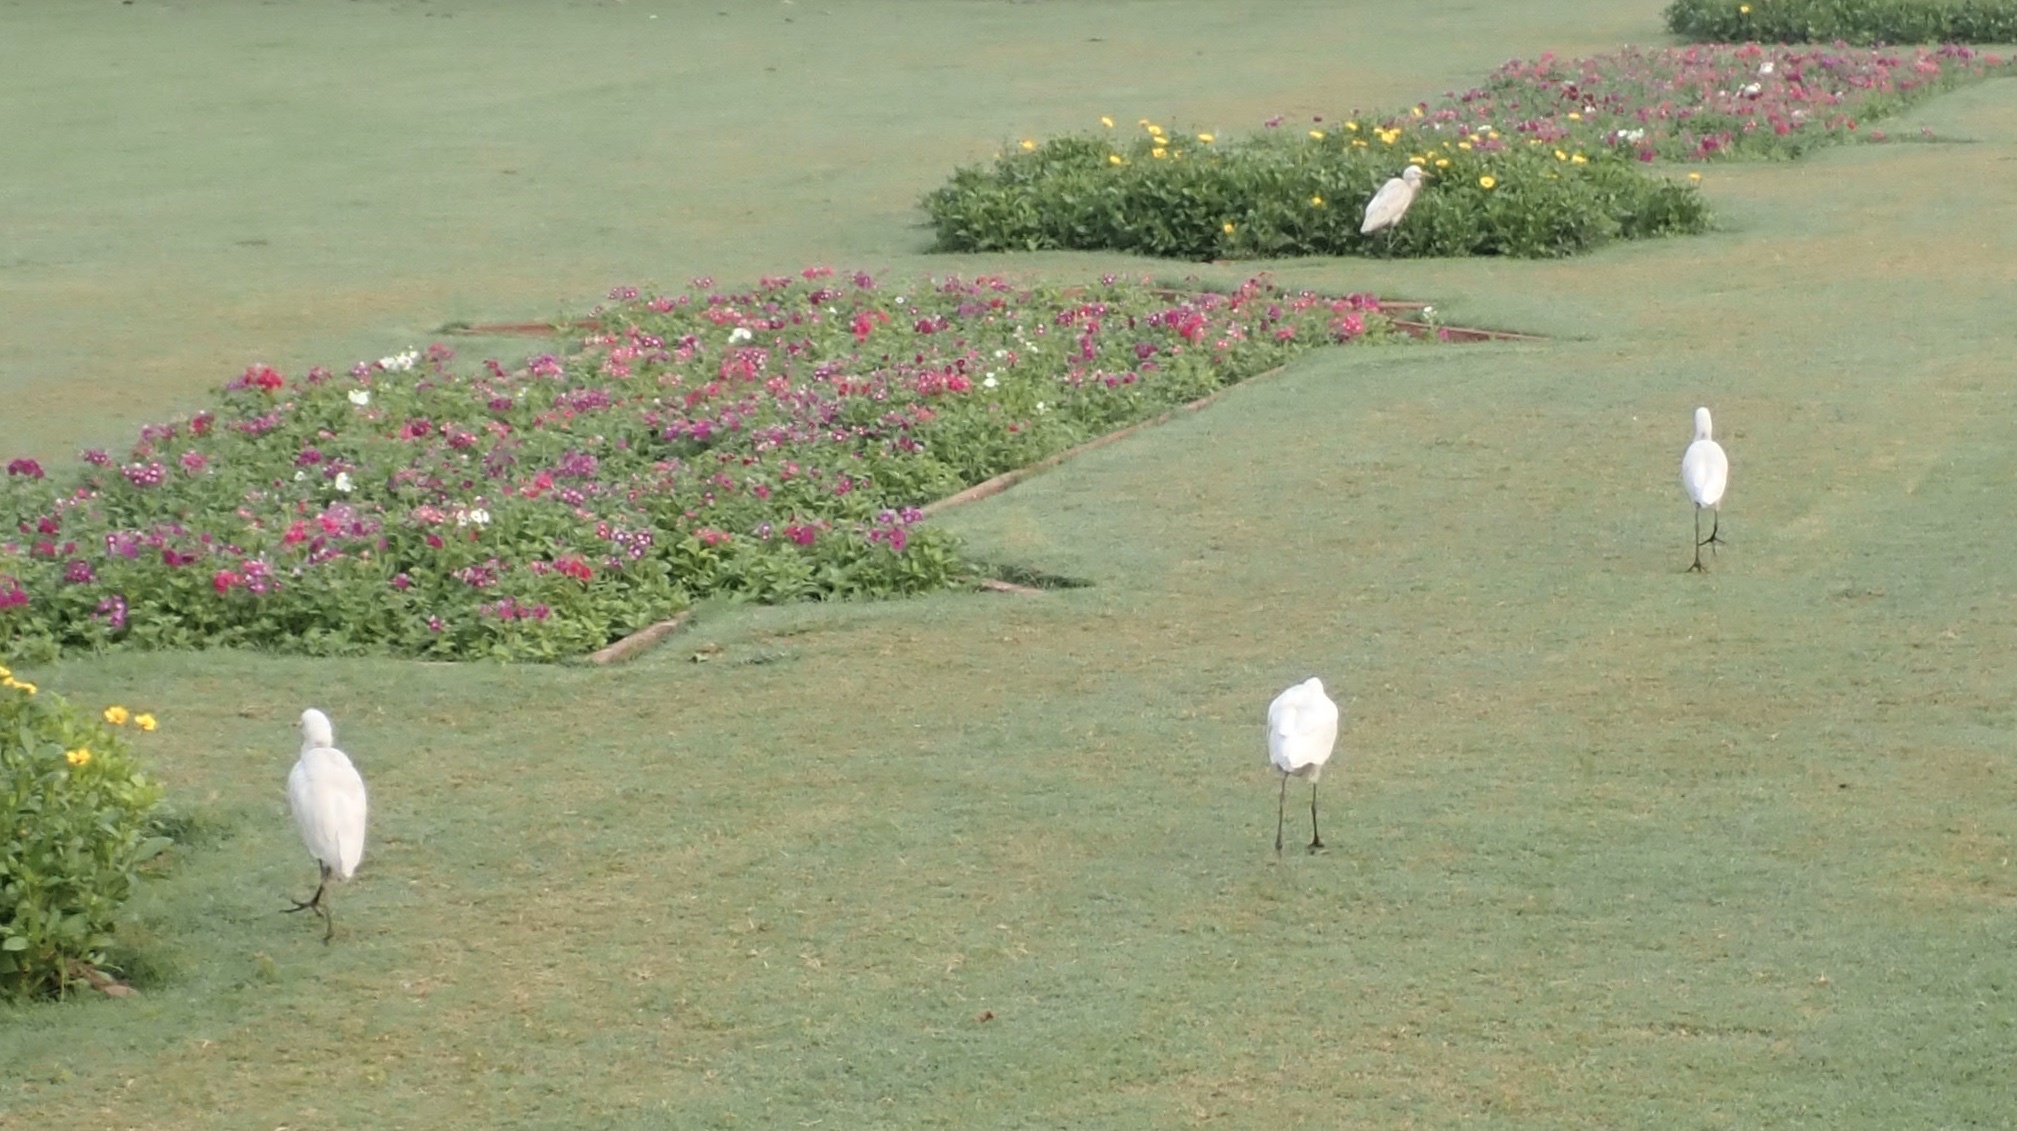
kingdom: Animalia
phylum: Chordata
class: Aves
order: Pelecaniformes
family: Ardeidae
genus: Bubulcus
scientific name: Bubulcus coromandus
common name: Eastern cattle egret
